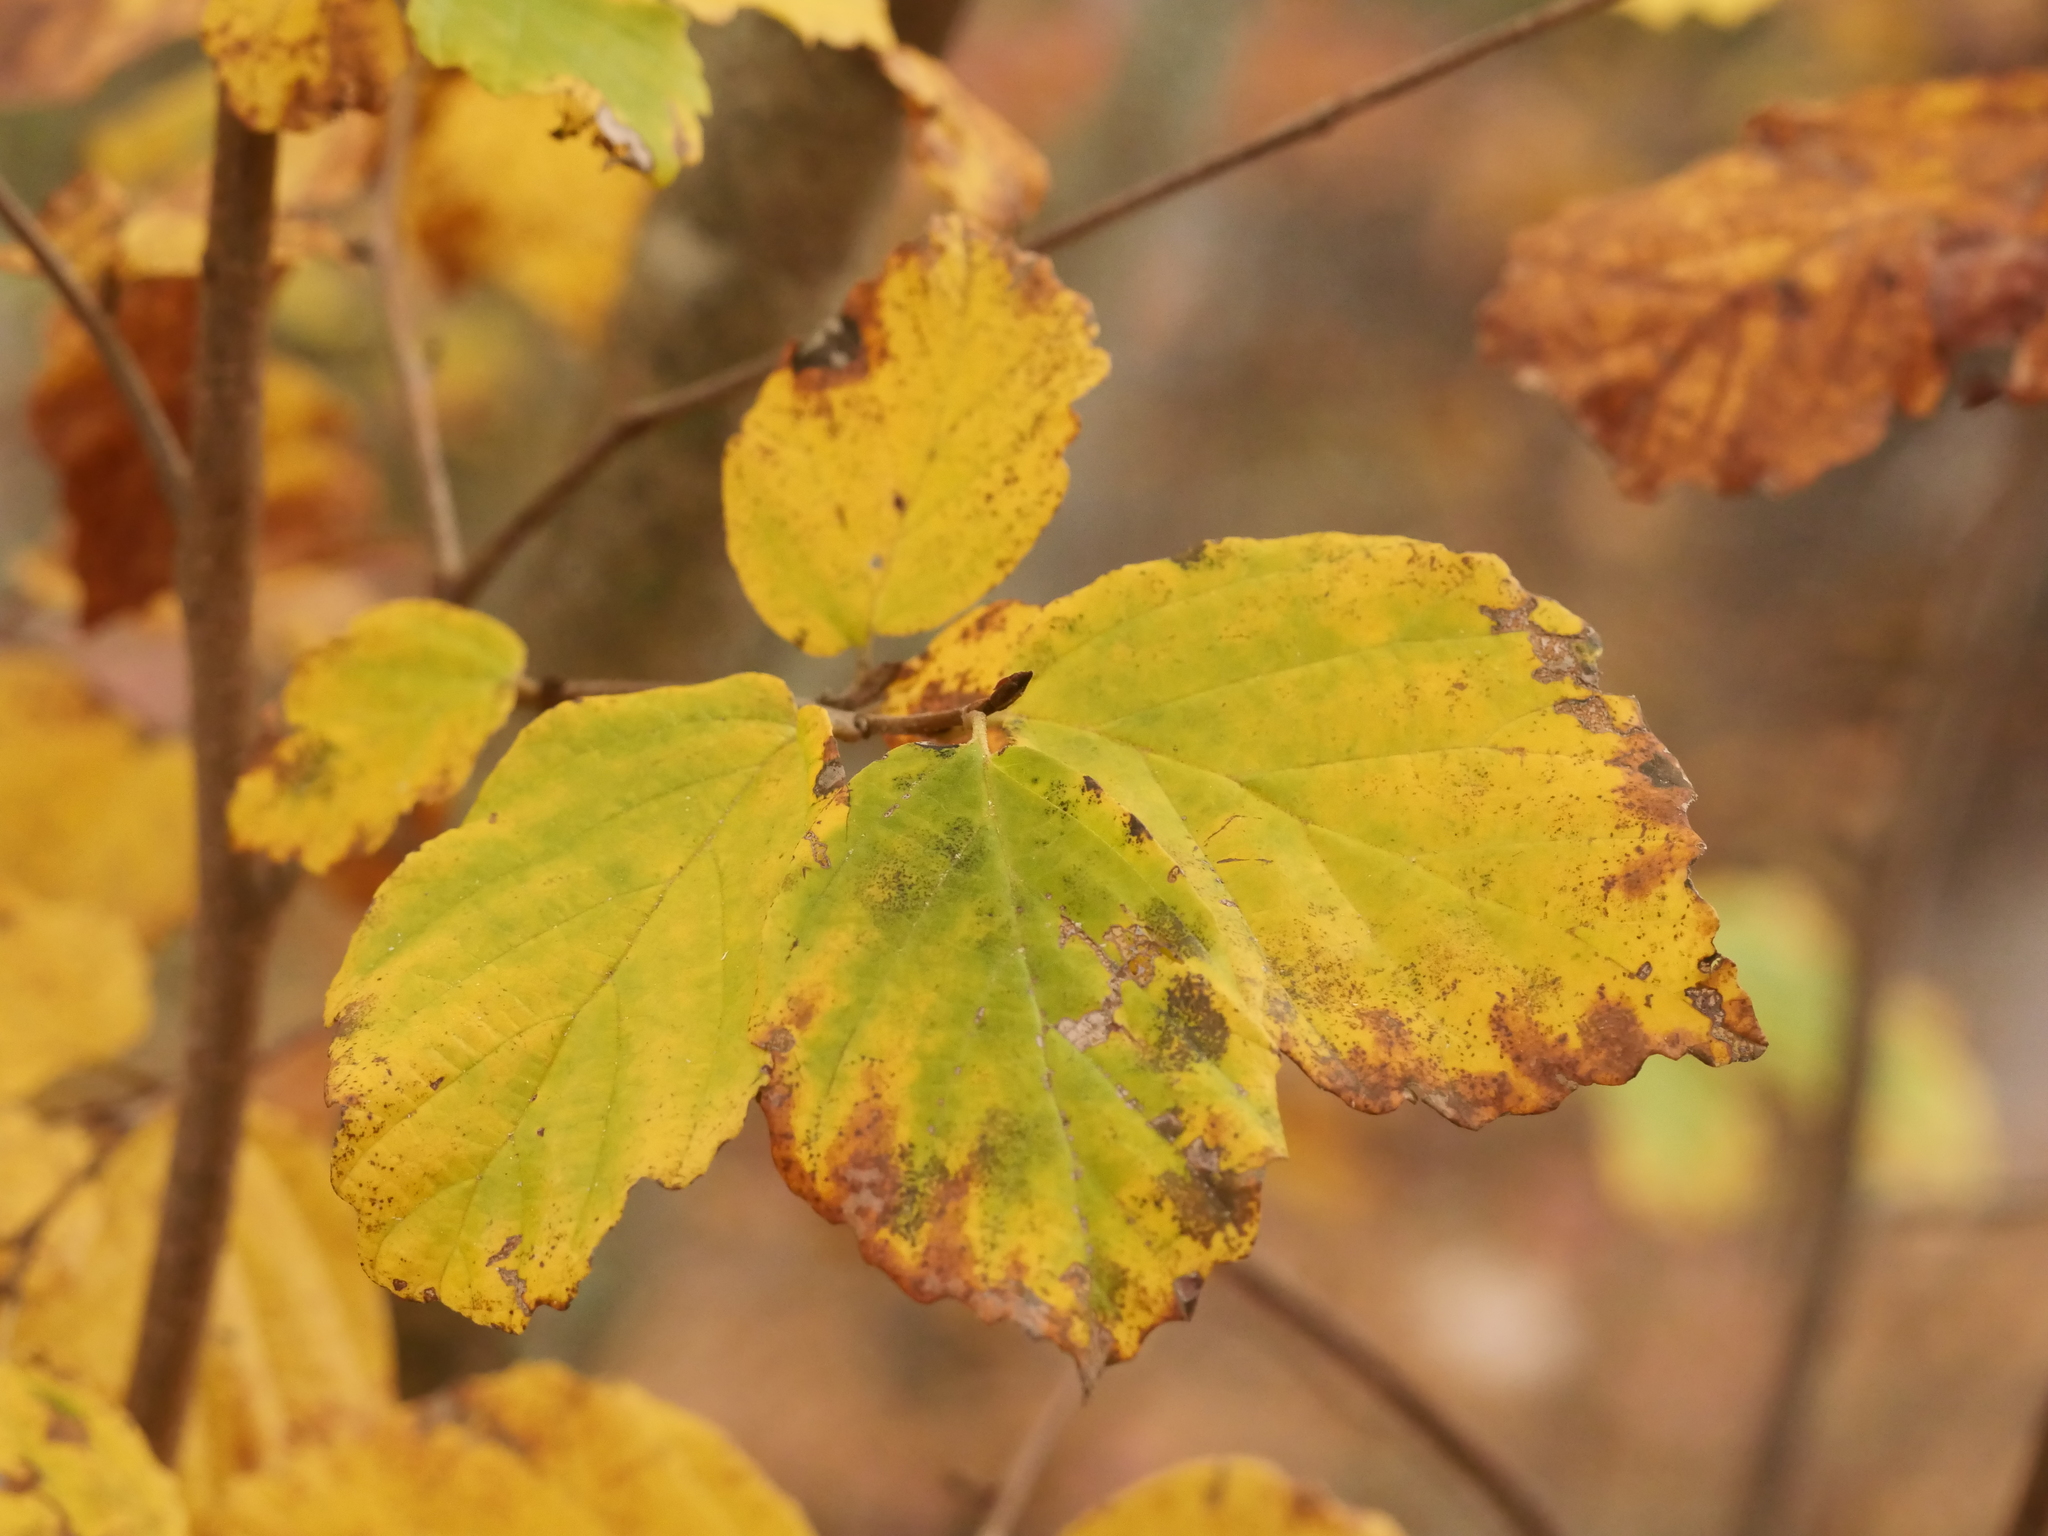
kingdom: Plantae
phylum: Tracheophyta
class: Magnoliopsida
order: Saxifragales
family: Hamamelidaceae
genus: Hamamelis
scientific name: Hamamelis virginiana
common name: Witch-hazel
